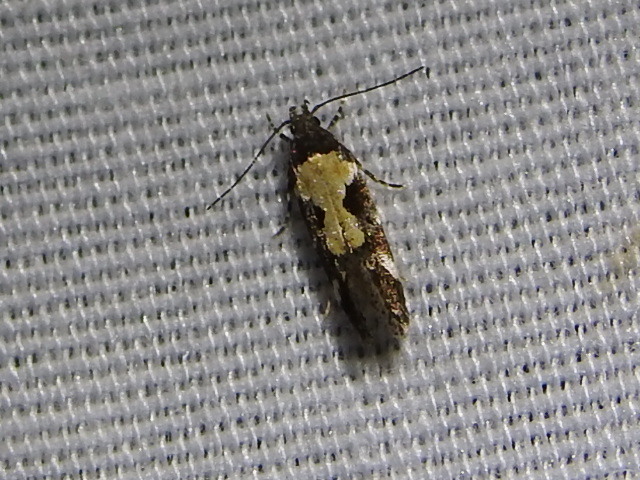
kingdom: Animalia
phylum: Arthropoda
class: Insecta
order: Lepidoptera
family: Gelechiidae
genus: Stegasta
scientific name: Stegasta bosqueella
